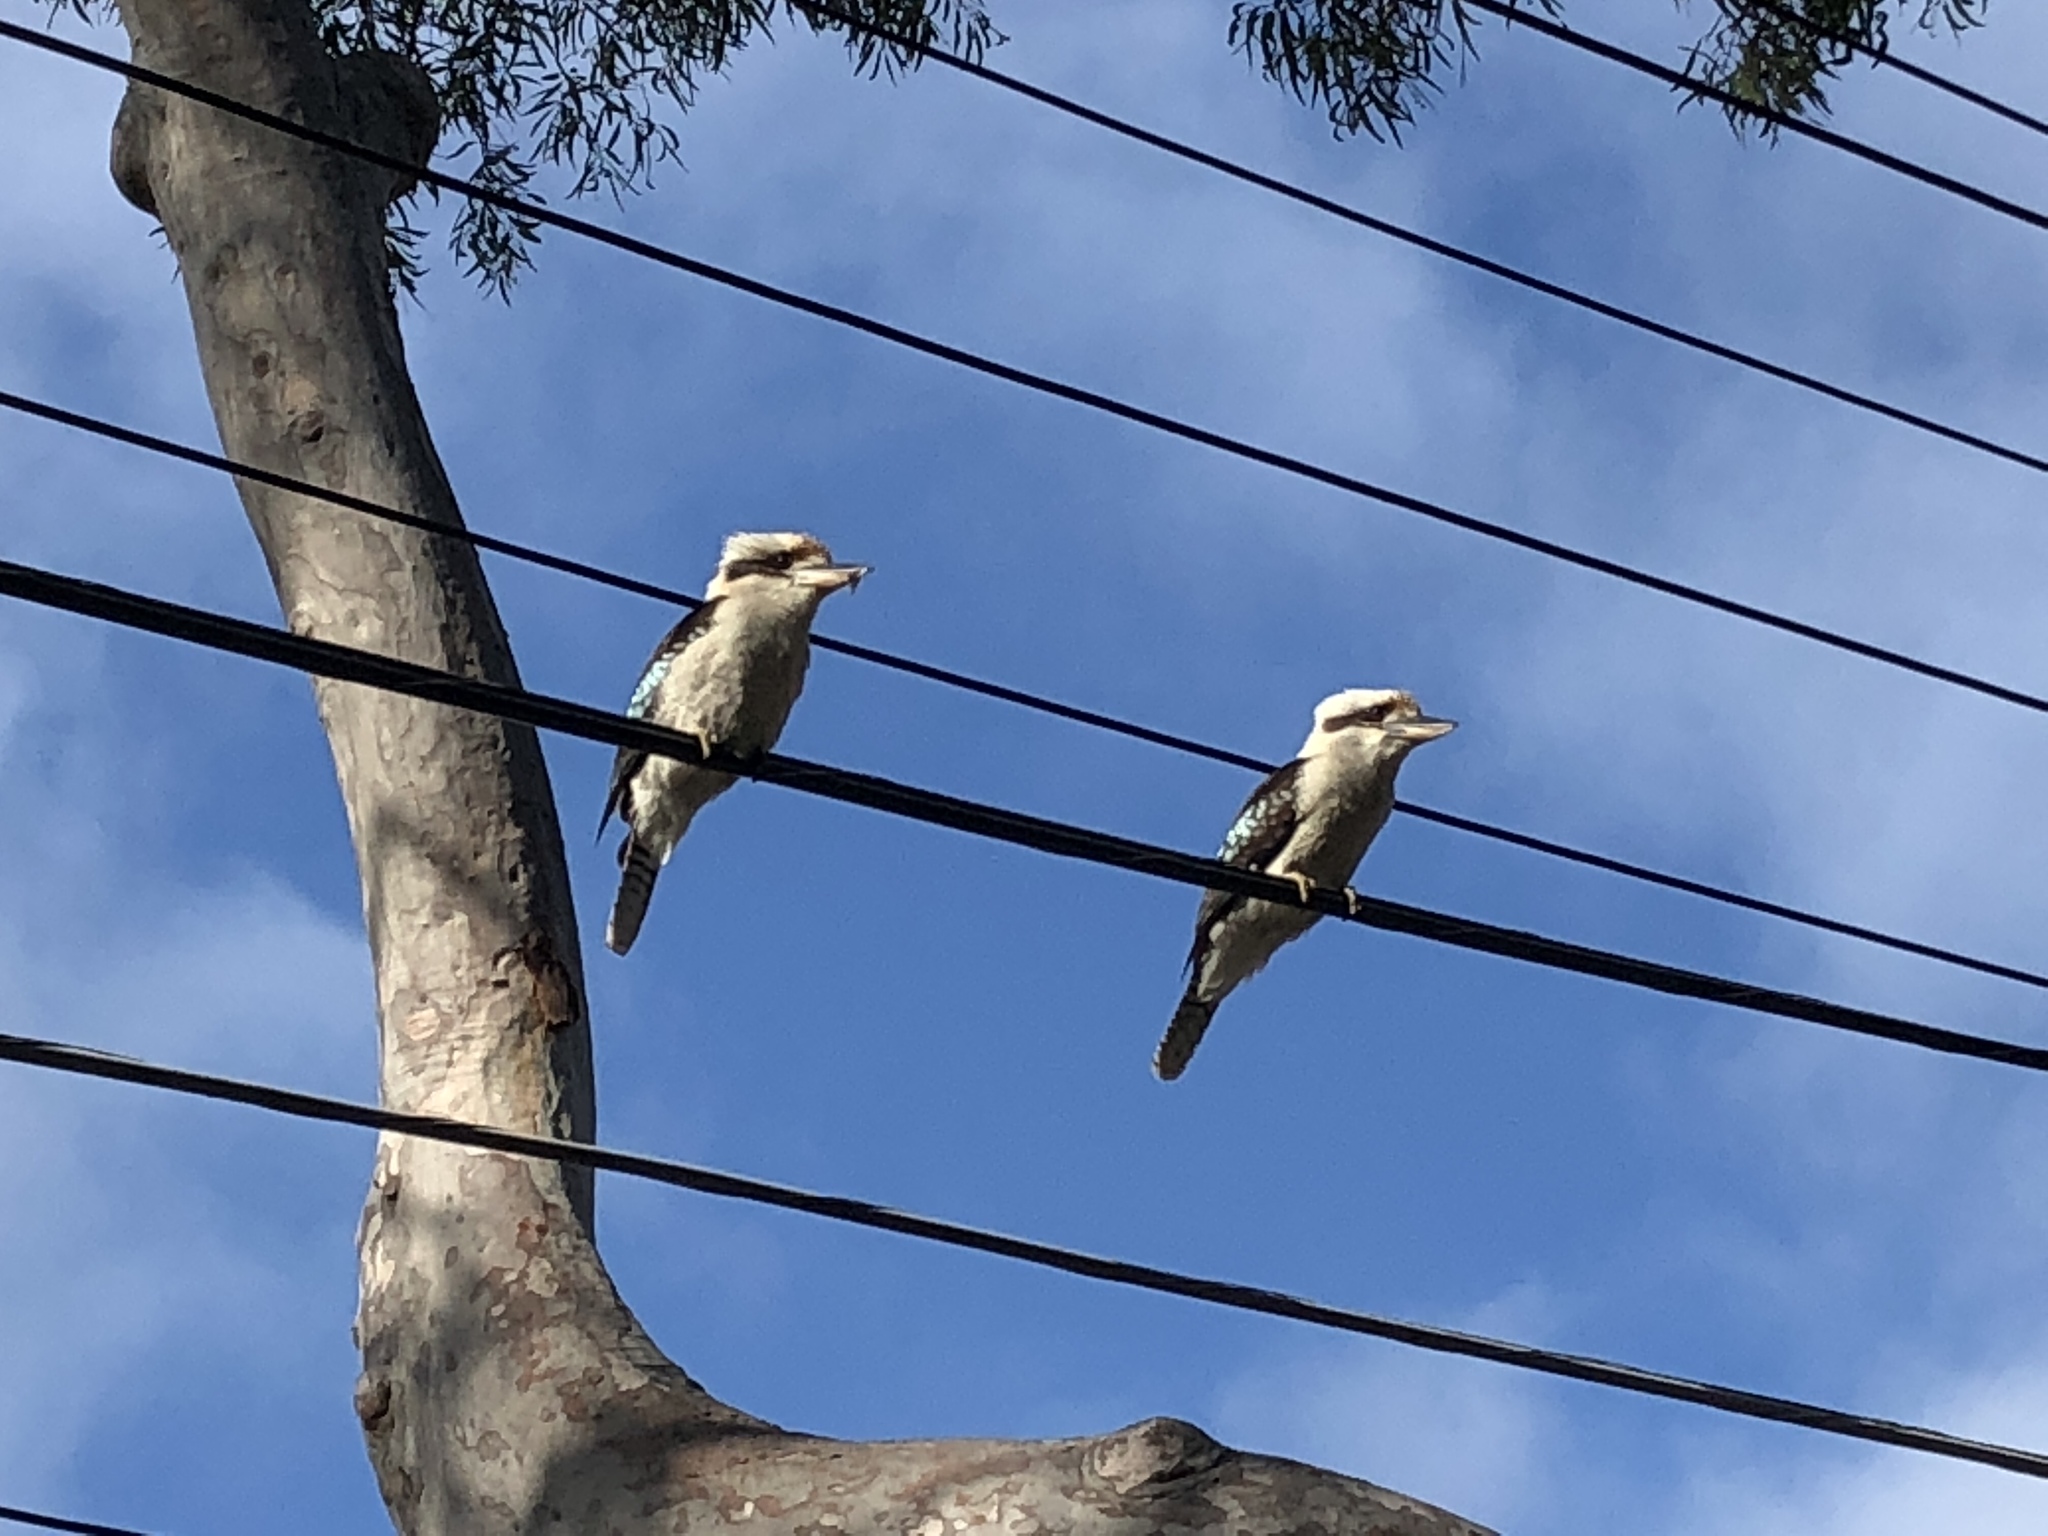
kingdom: Animalia
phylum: Chordata
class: Aves
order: Coraciiformes
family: Alcedinidae
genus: Dacelo
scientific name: Dacelo novaeguineae
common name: Laughing kookaburra
